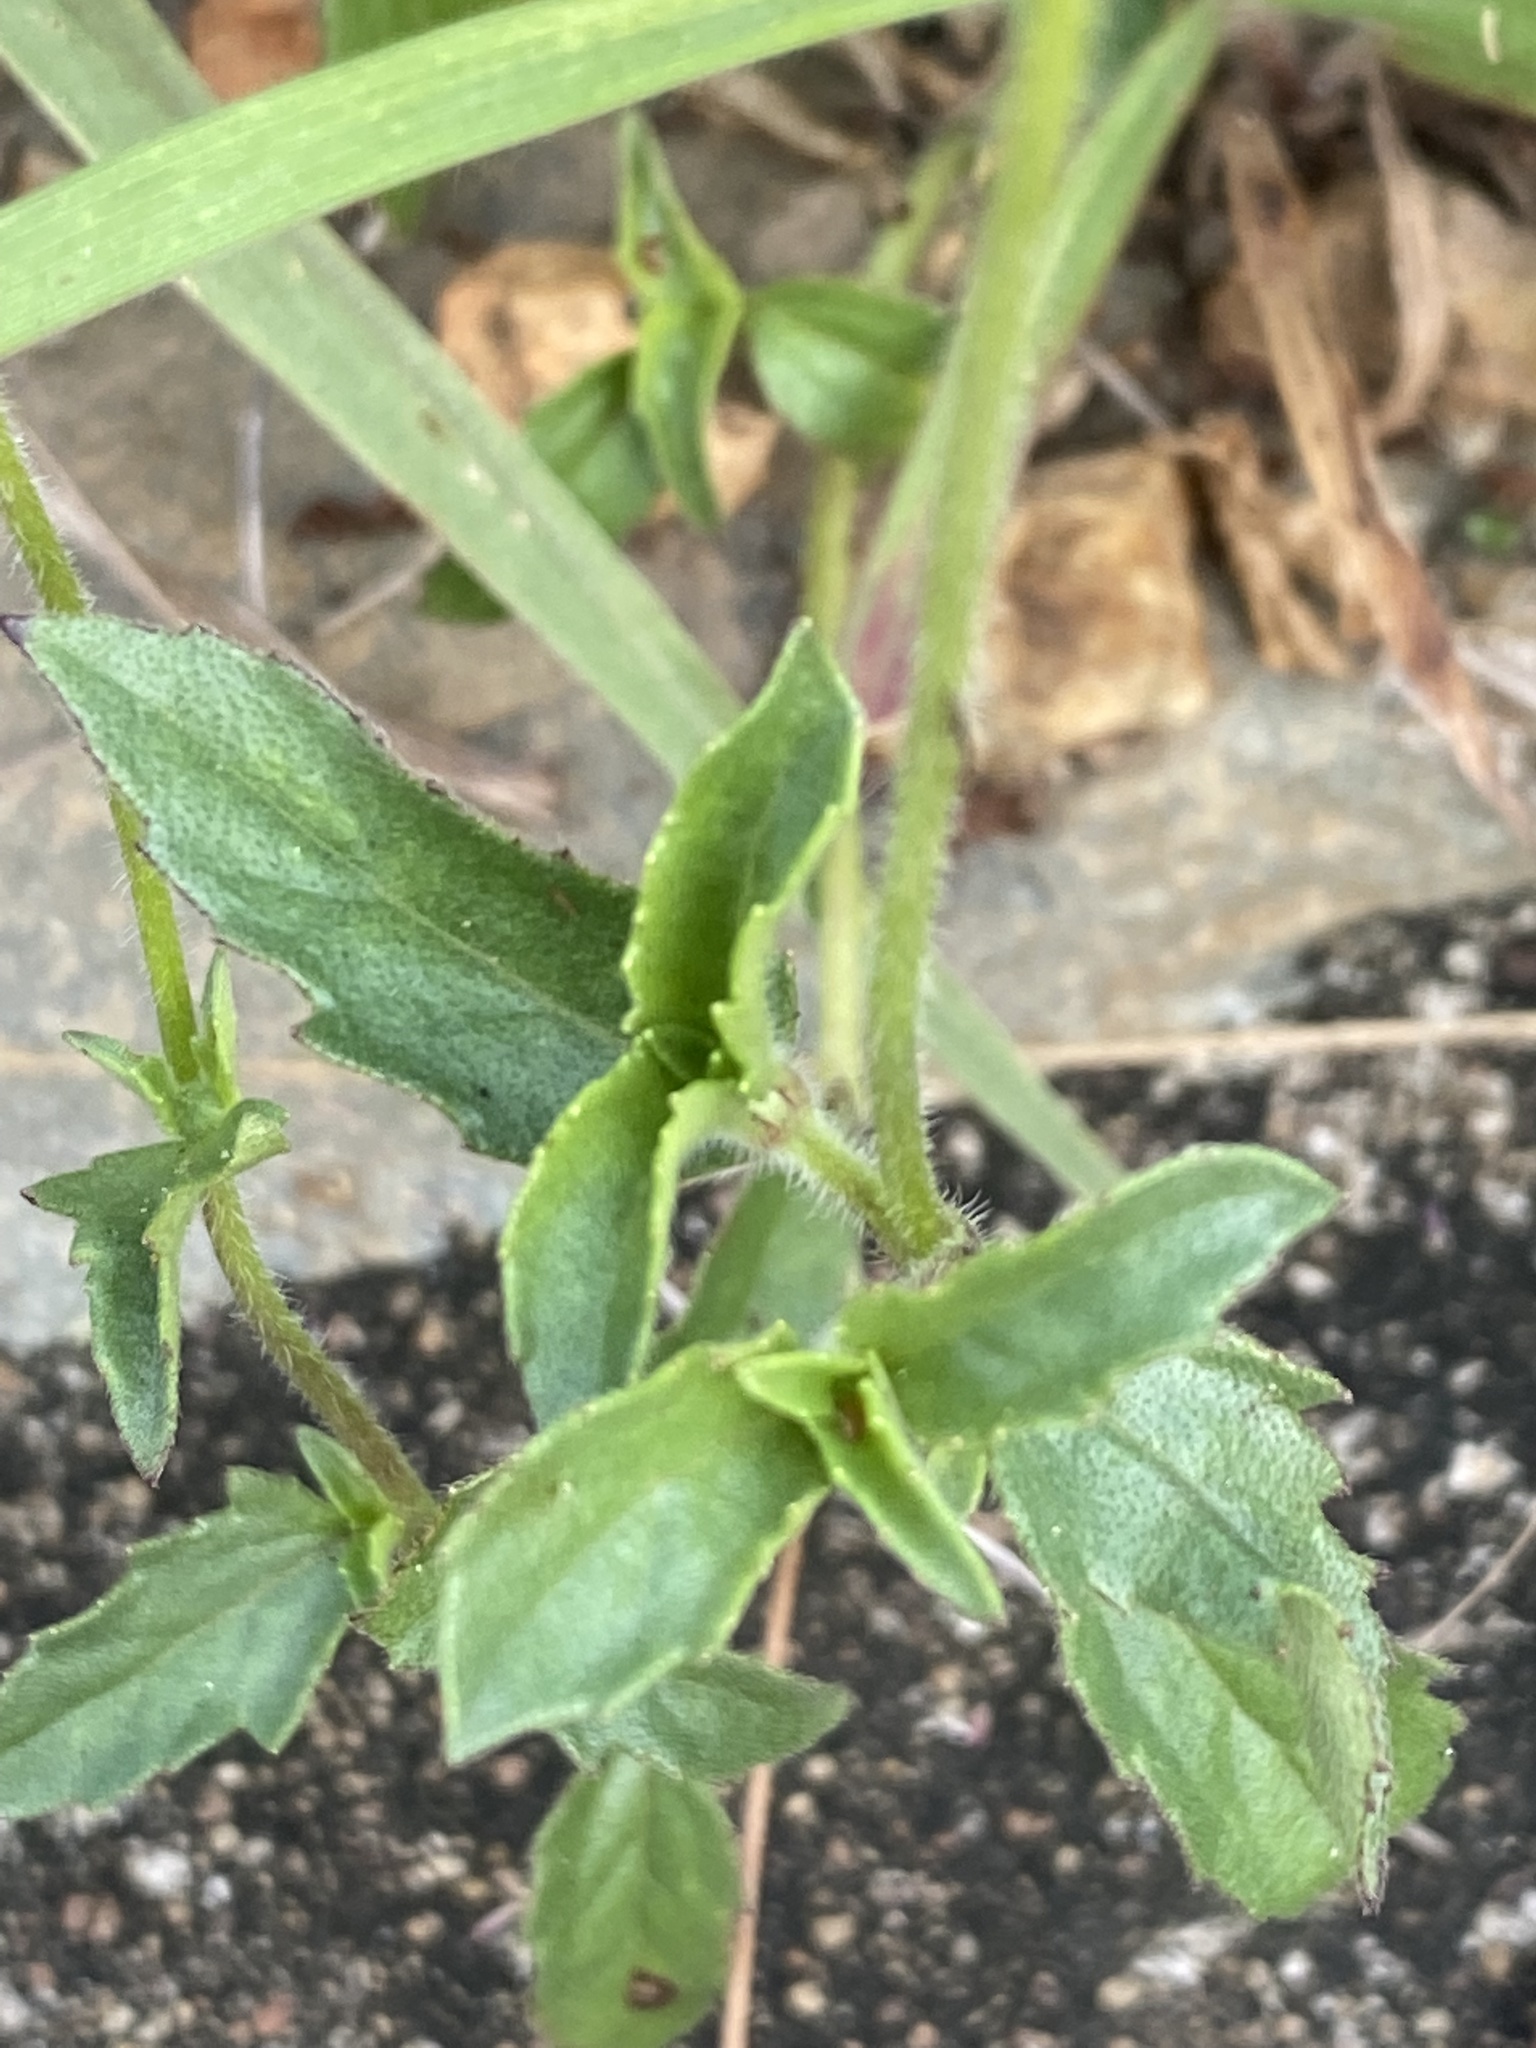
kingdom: Plantae
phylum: Tracheophyta
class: Magnoliopsida
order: Asterales
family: Asteraceae
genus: Tridax
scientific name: Tridax procumbens
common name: Coatbuttons
